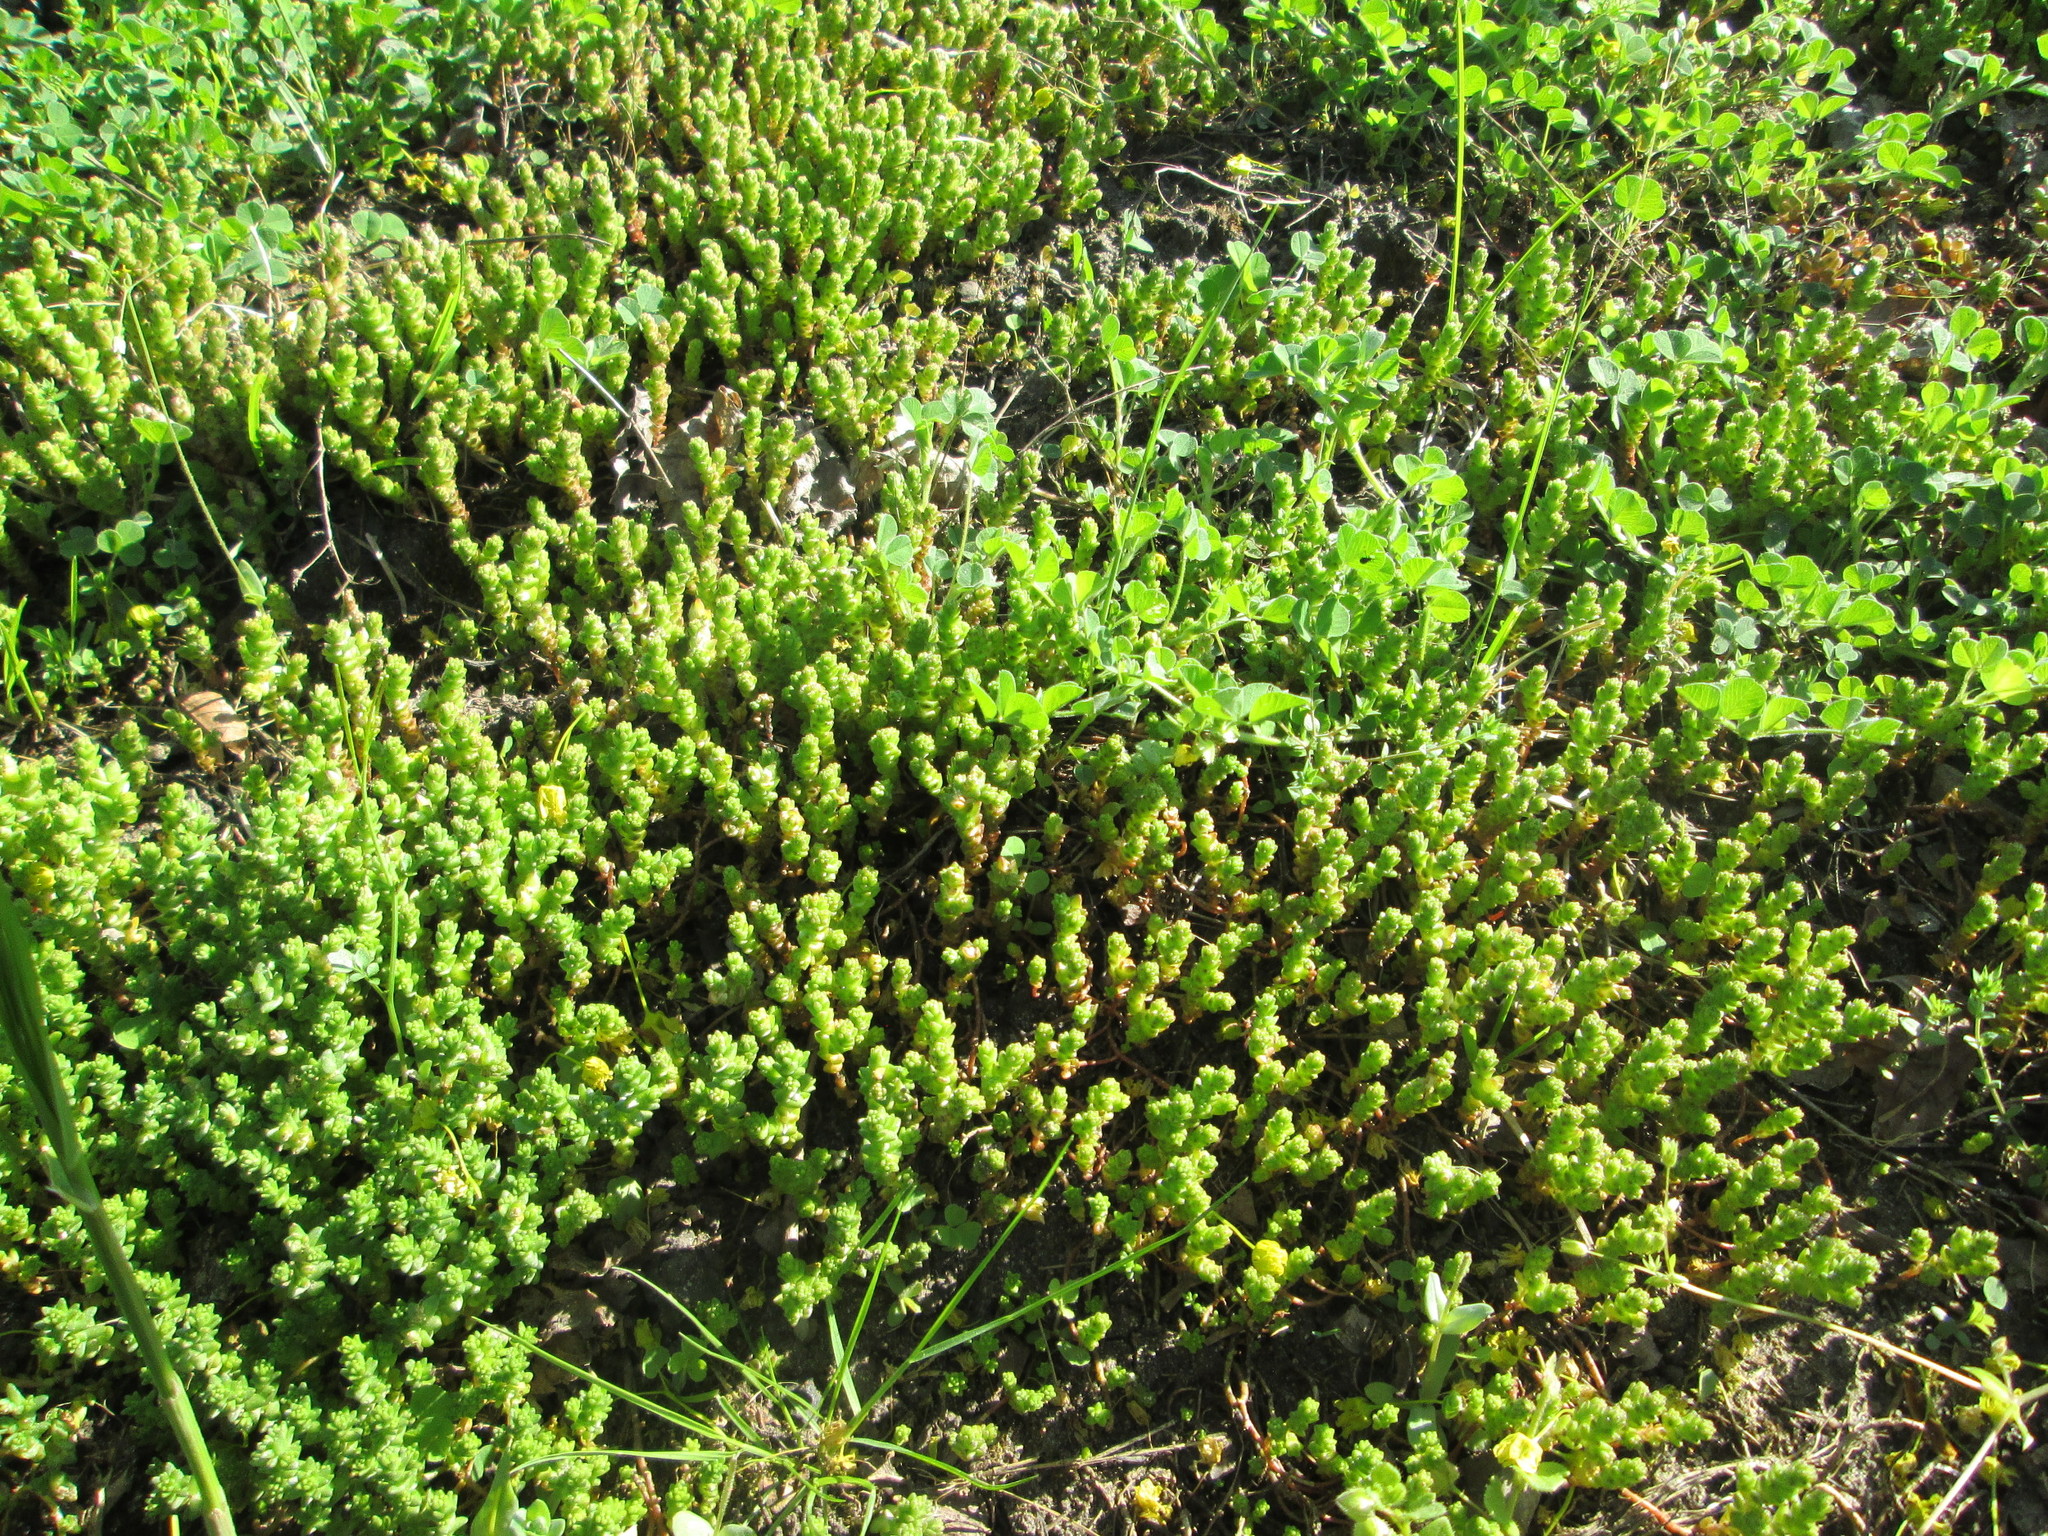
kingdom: Plantae
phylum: Tracheophyta
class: Magnoliopsida
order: Saxifragales
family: Crassulaceae
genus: Sedum
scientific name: Sedum acre
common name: Biting stonecrop
